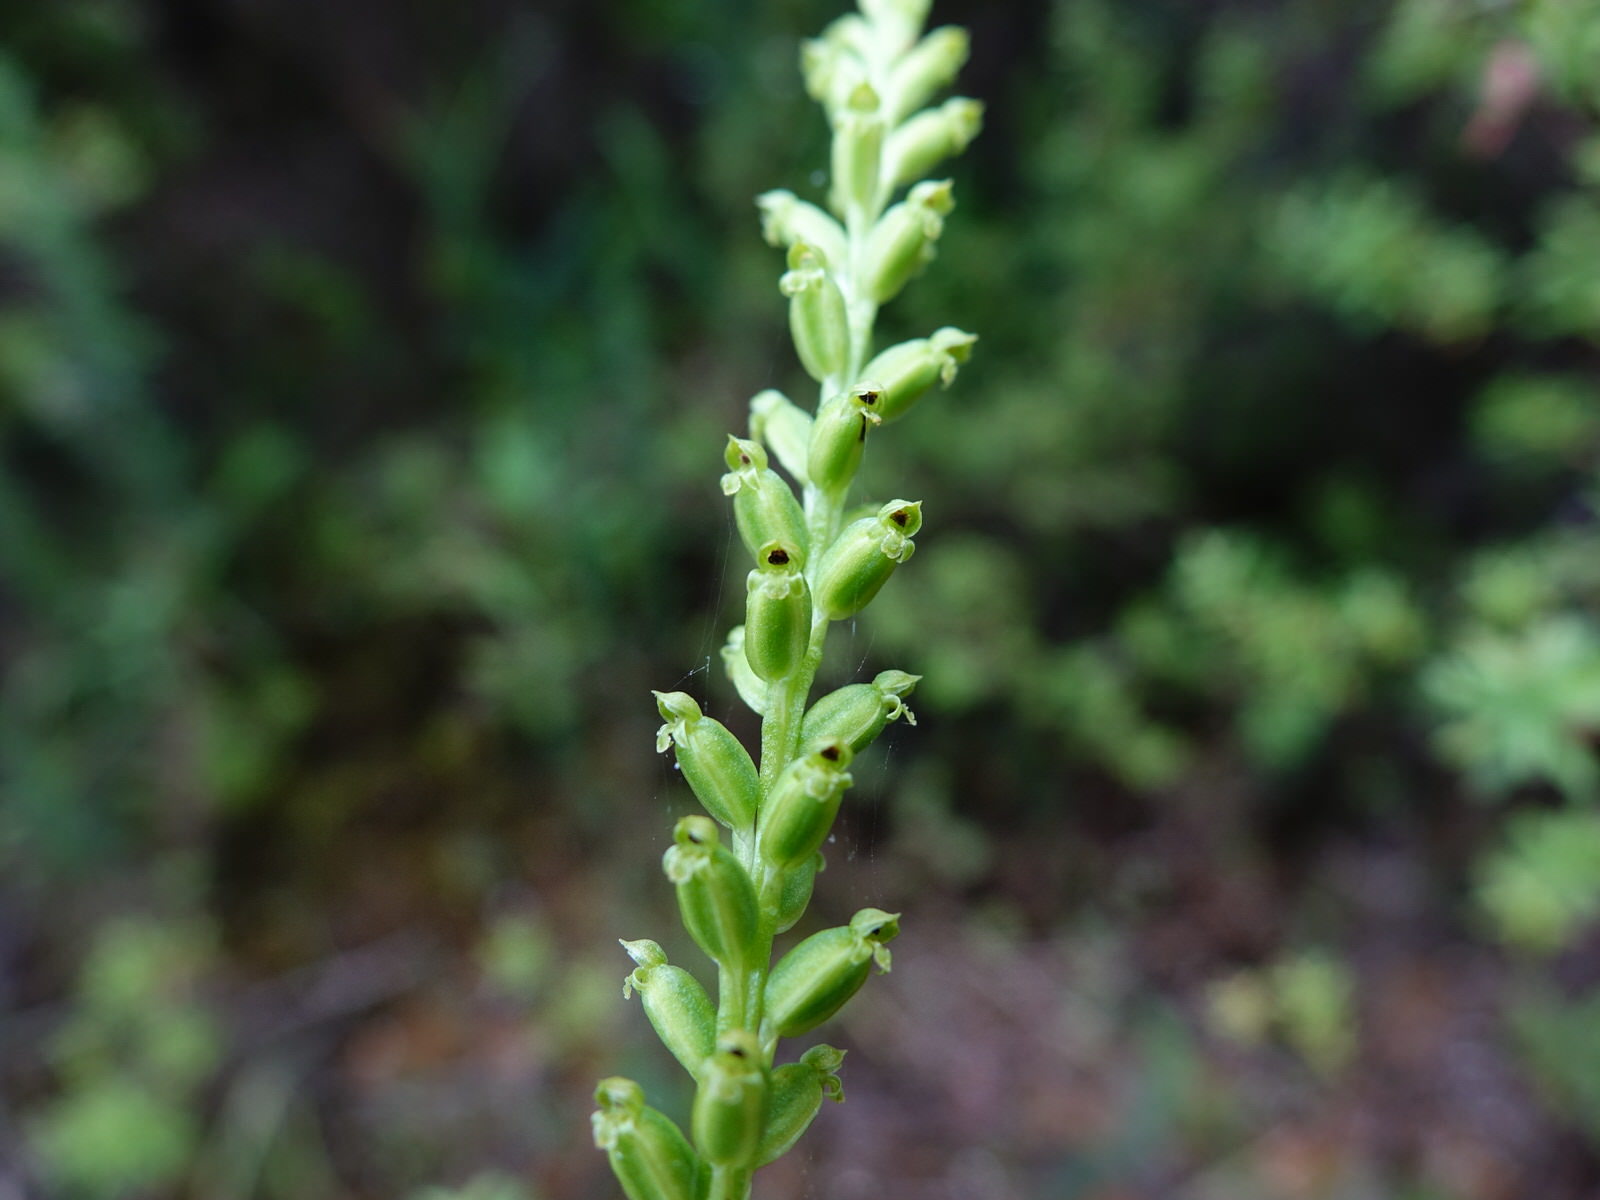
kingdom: Plantae
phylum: Tracheophyta
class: Liliopsida
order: Asparagales
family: Orchidaceae
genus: Microtis
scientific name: Microtis unifolia
